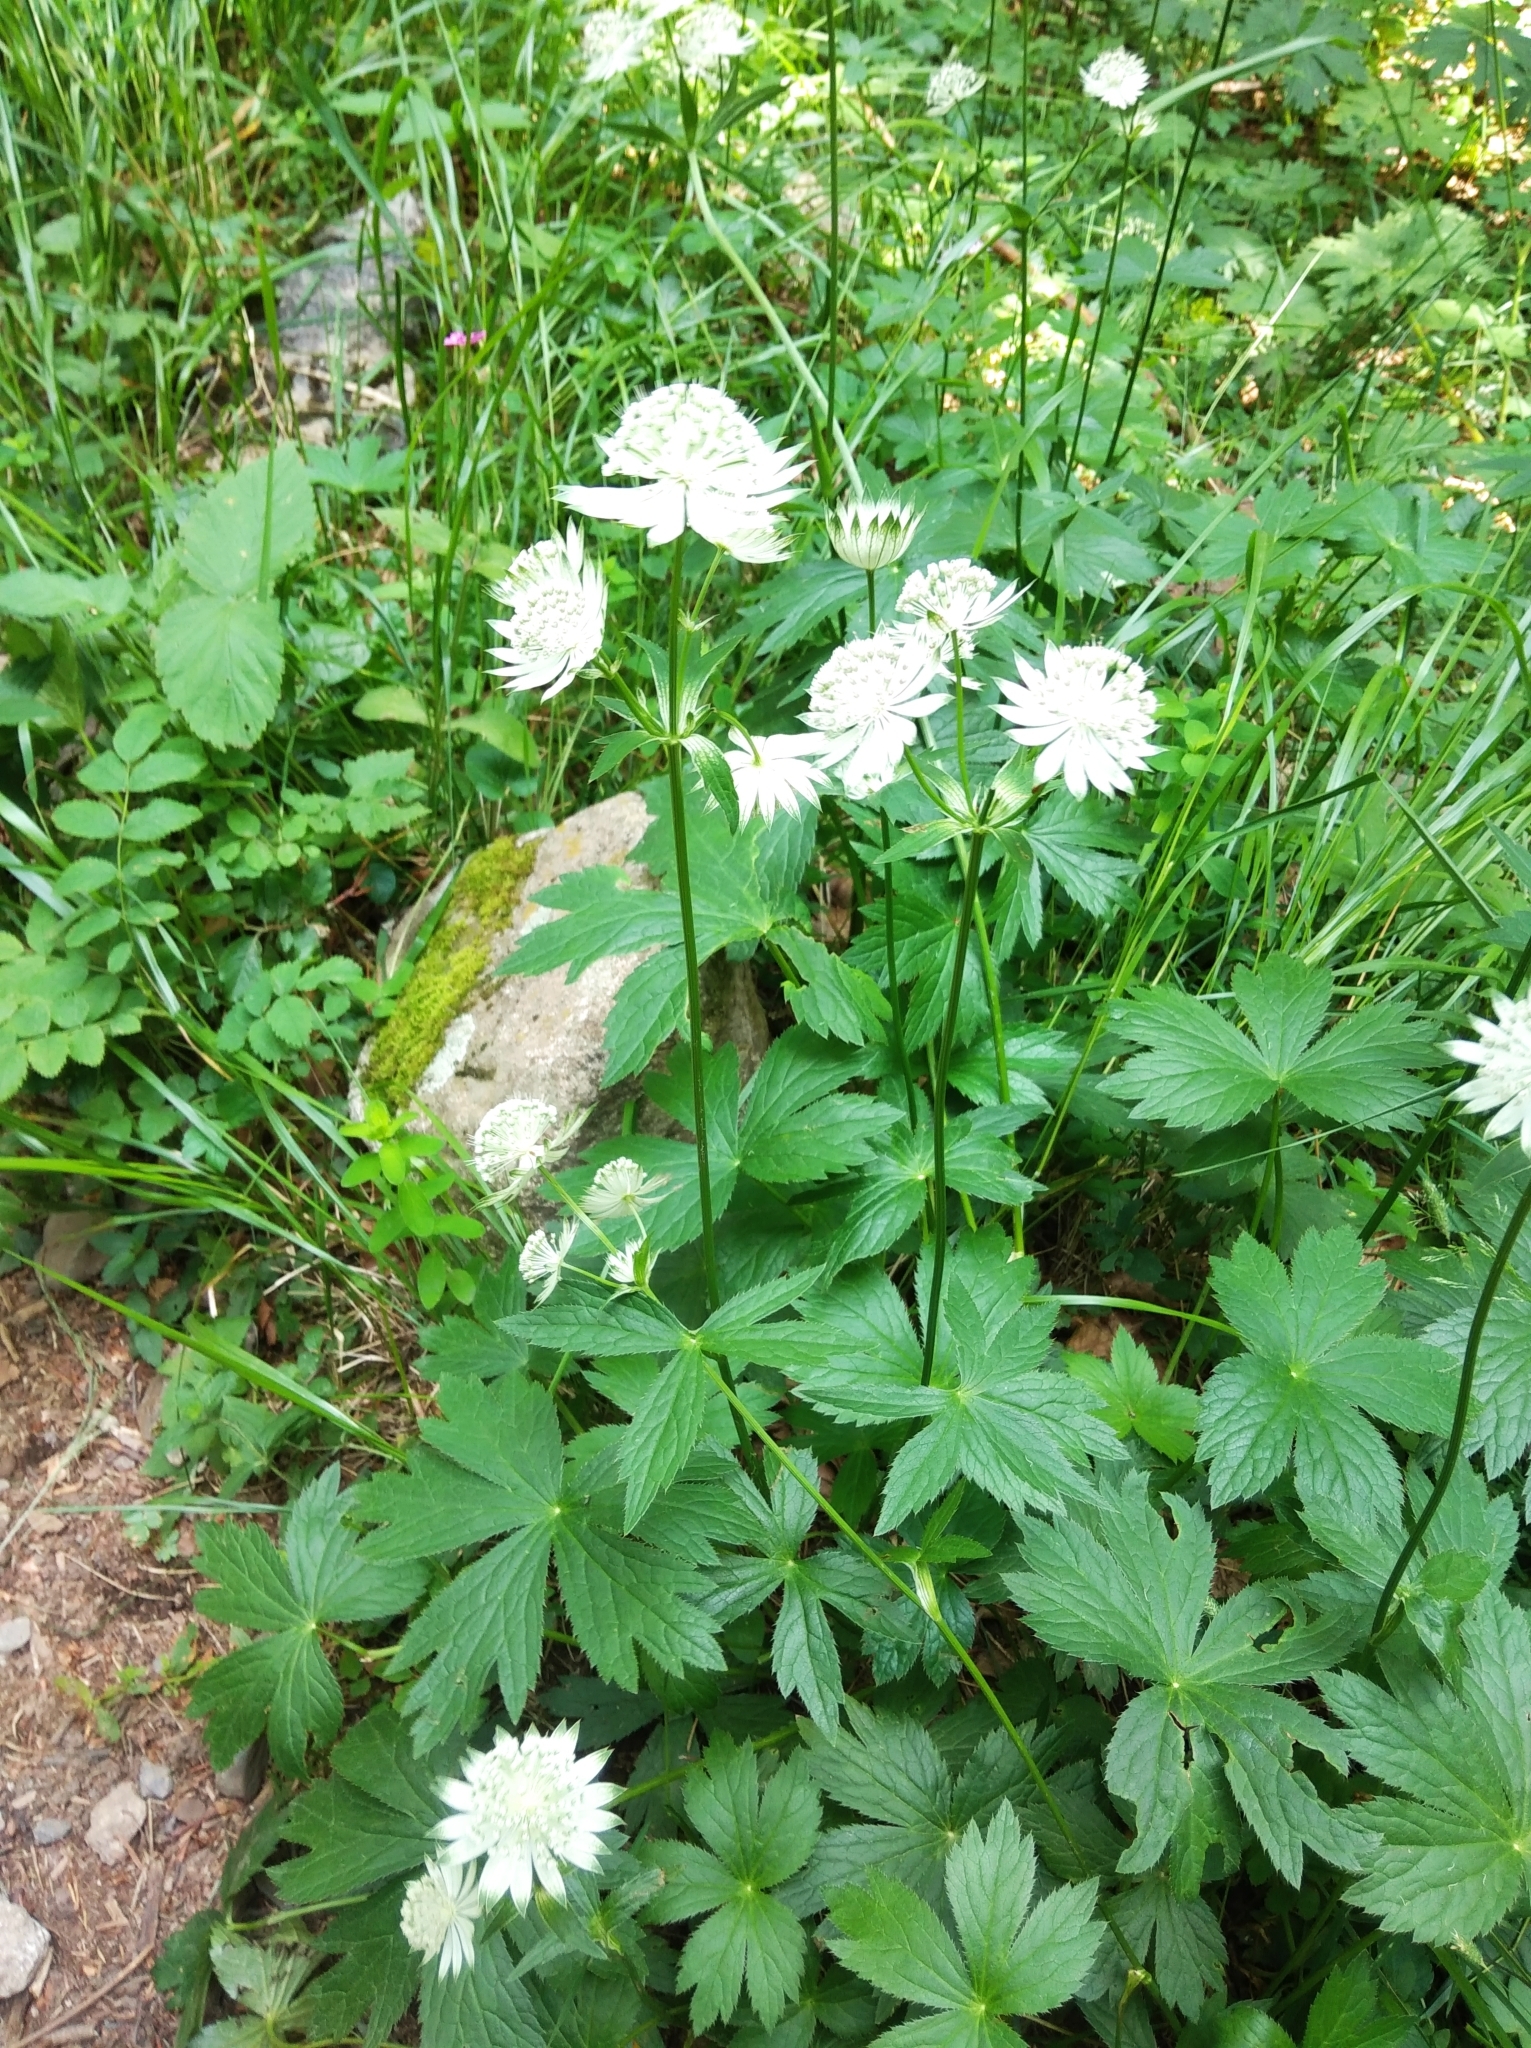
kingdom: Plantae
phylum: Tracheophyta
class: Magnoliopsida
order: Apiales
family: Apiaceae
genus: Astrantia
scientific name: Astrantia major
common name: Greater masterwort
